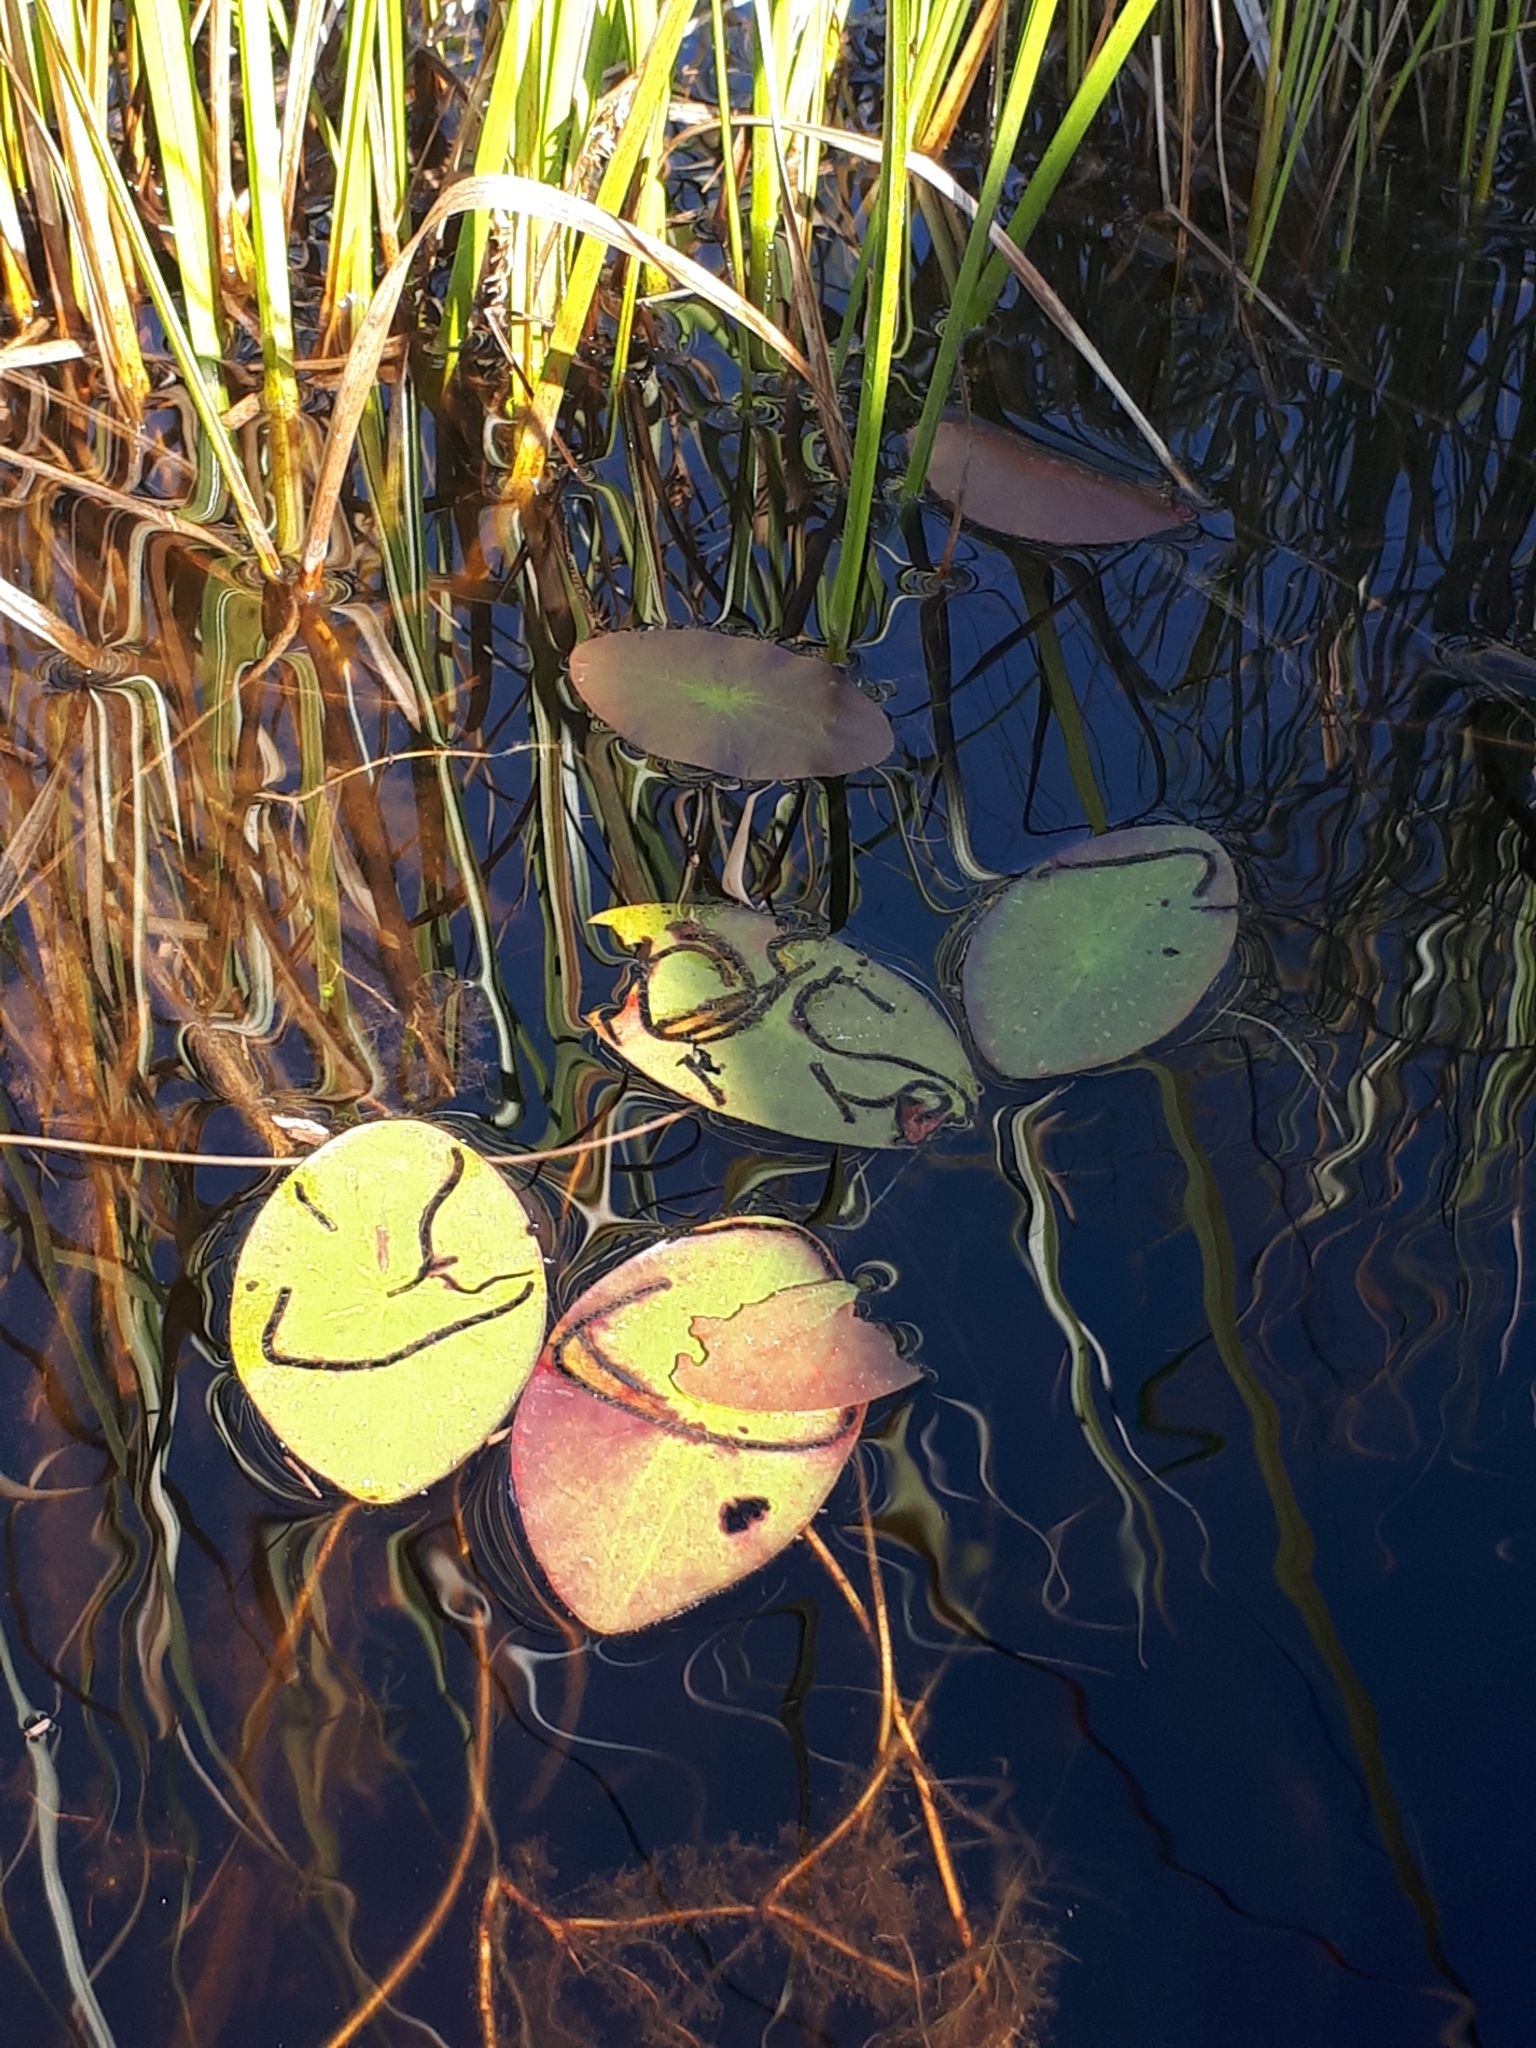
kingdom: Plantae
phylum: Tracheophyta
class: Magnoliopsida
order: Nymphaeales
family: Cabombaceae
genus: Brasenia
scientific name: Brasenia schreberi
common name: Water-shield
